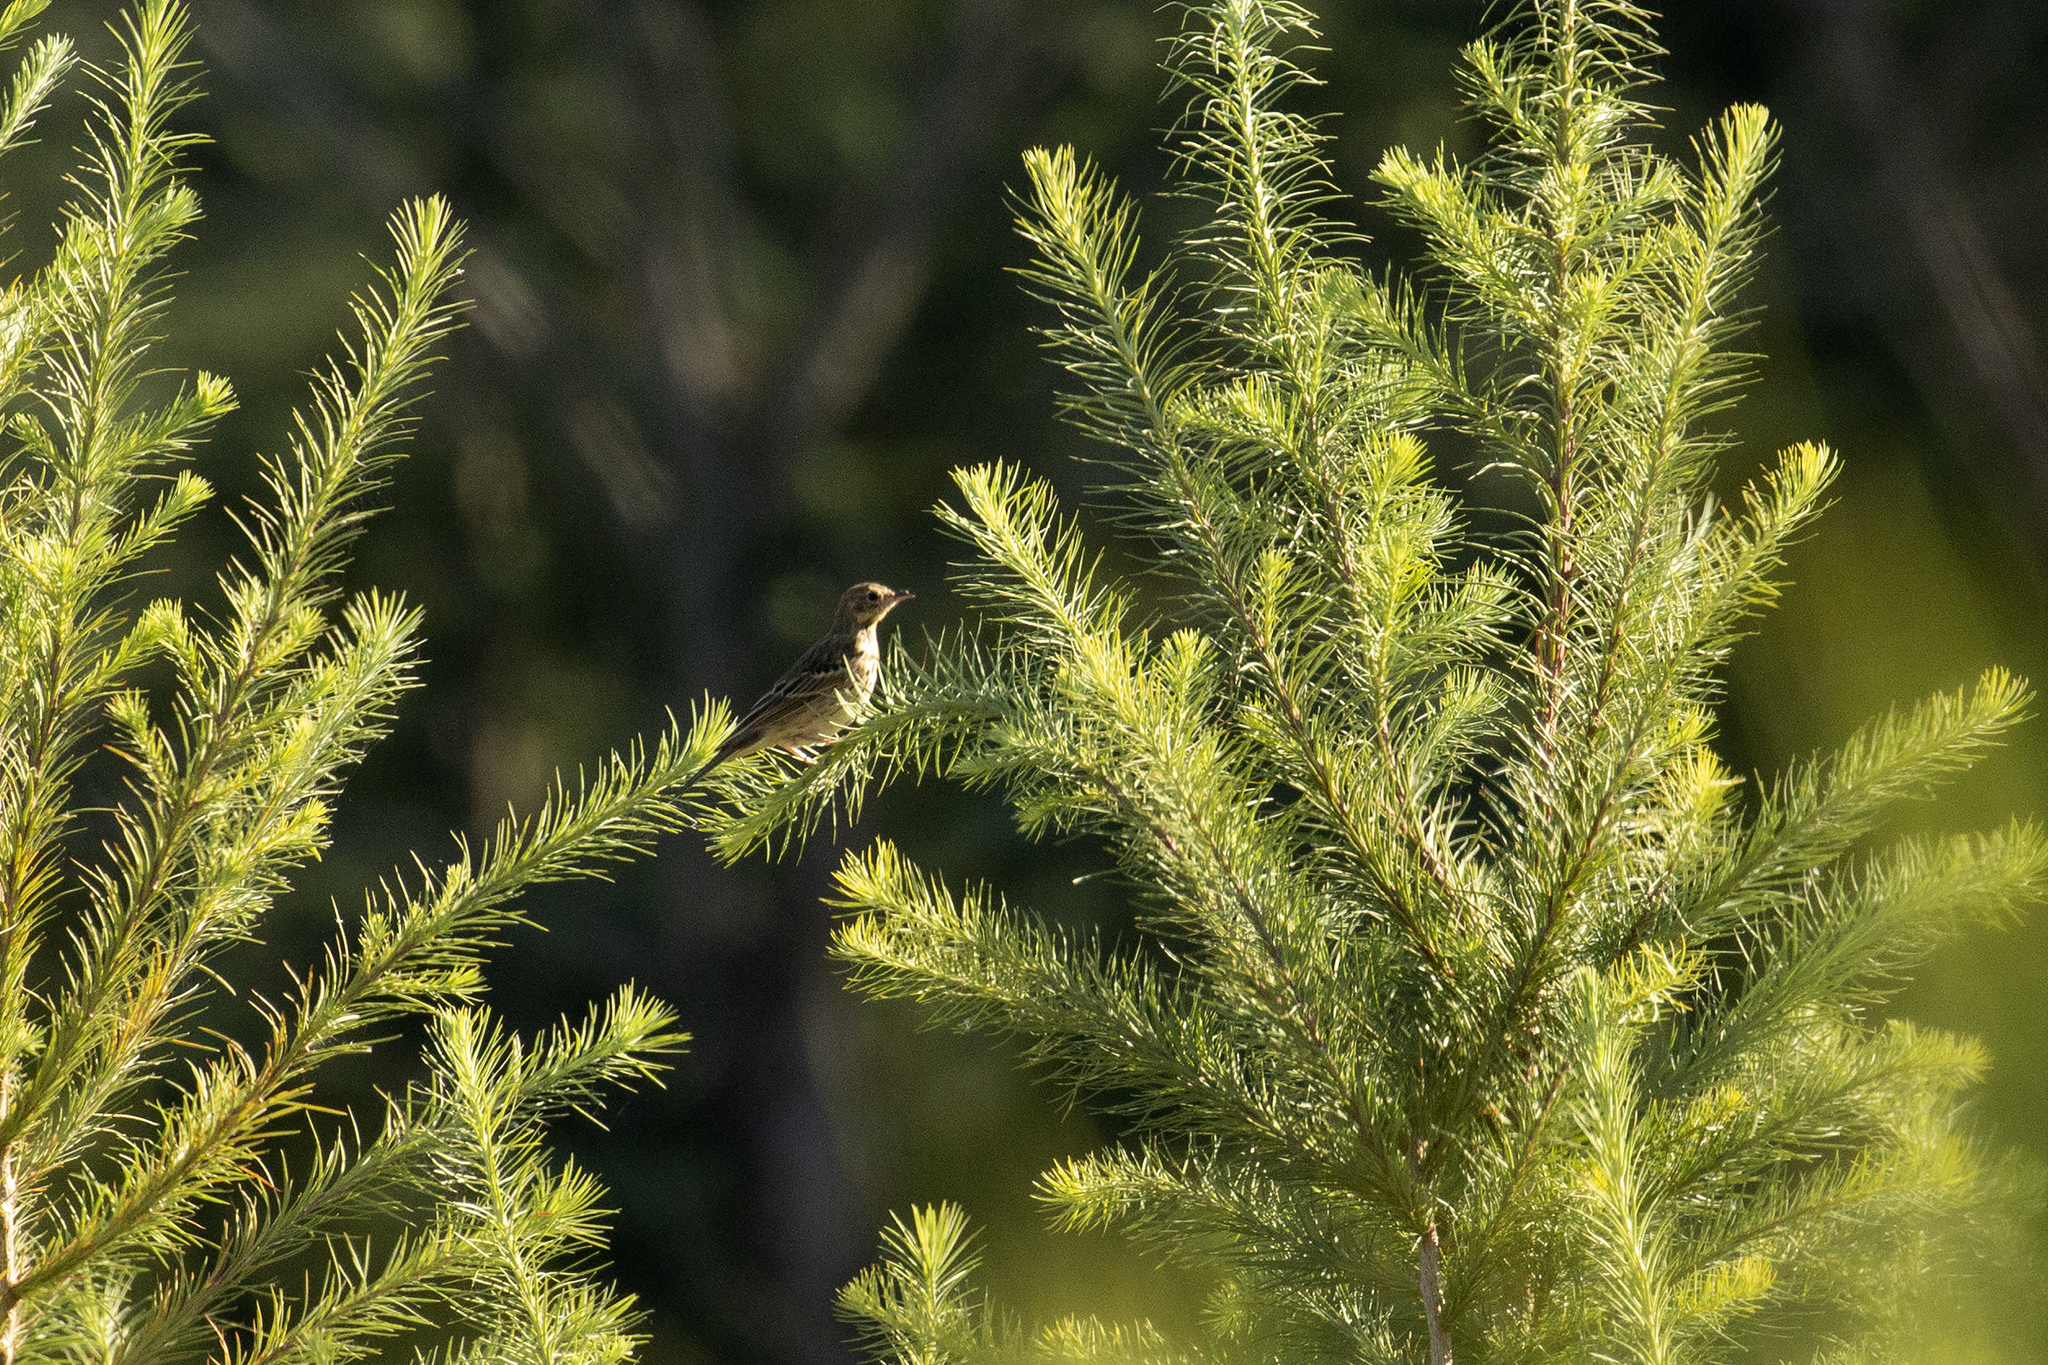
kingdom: Animalia
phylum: Chordata
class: Aves
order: Passeriformes
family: Motacillidae
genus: Anthus
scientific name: Anthus trivialis
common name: Tree pipit
